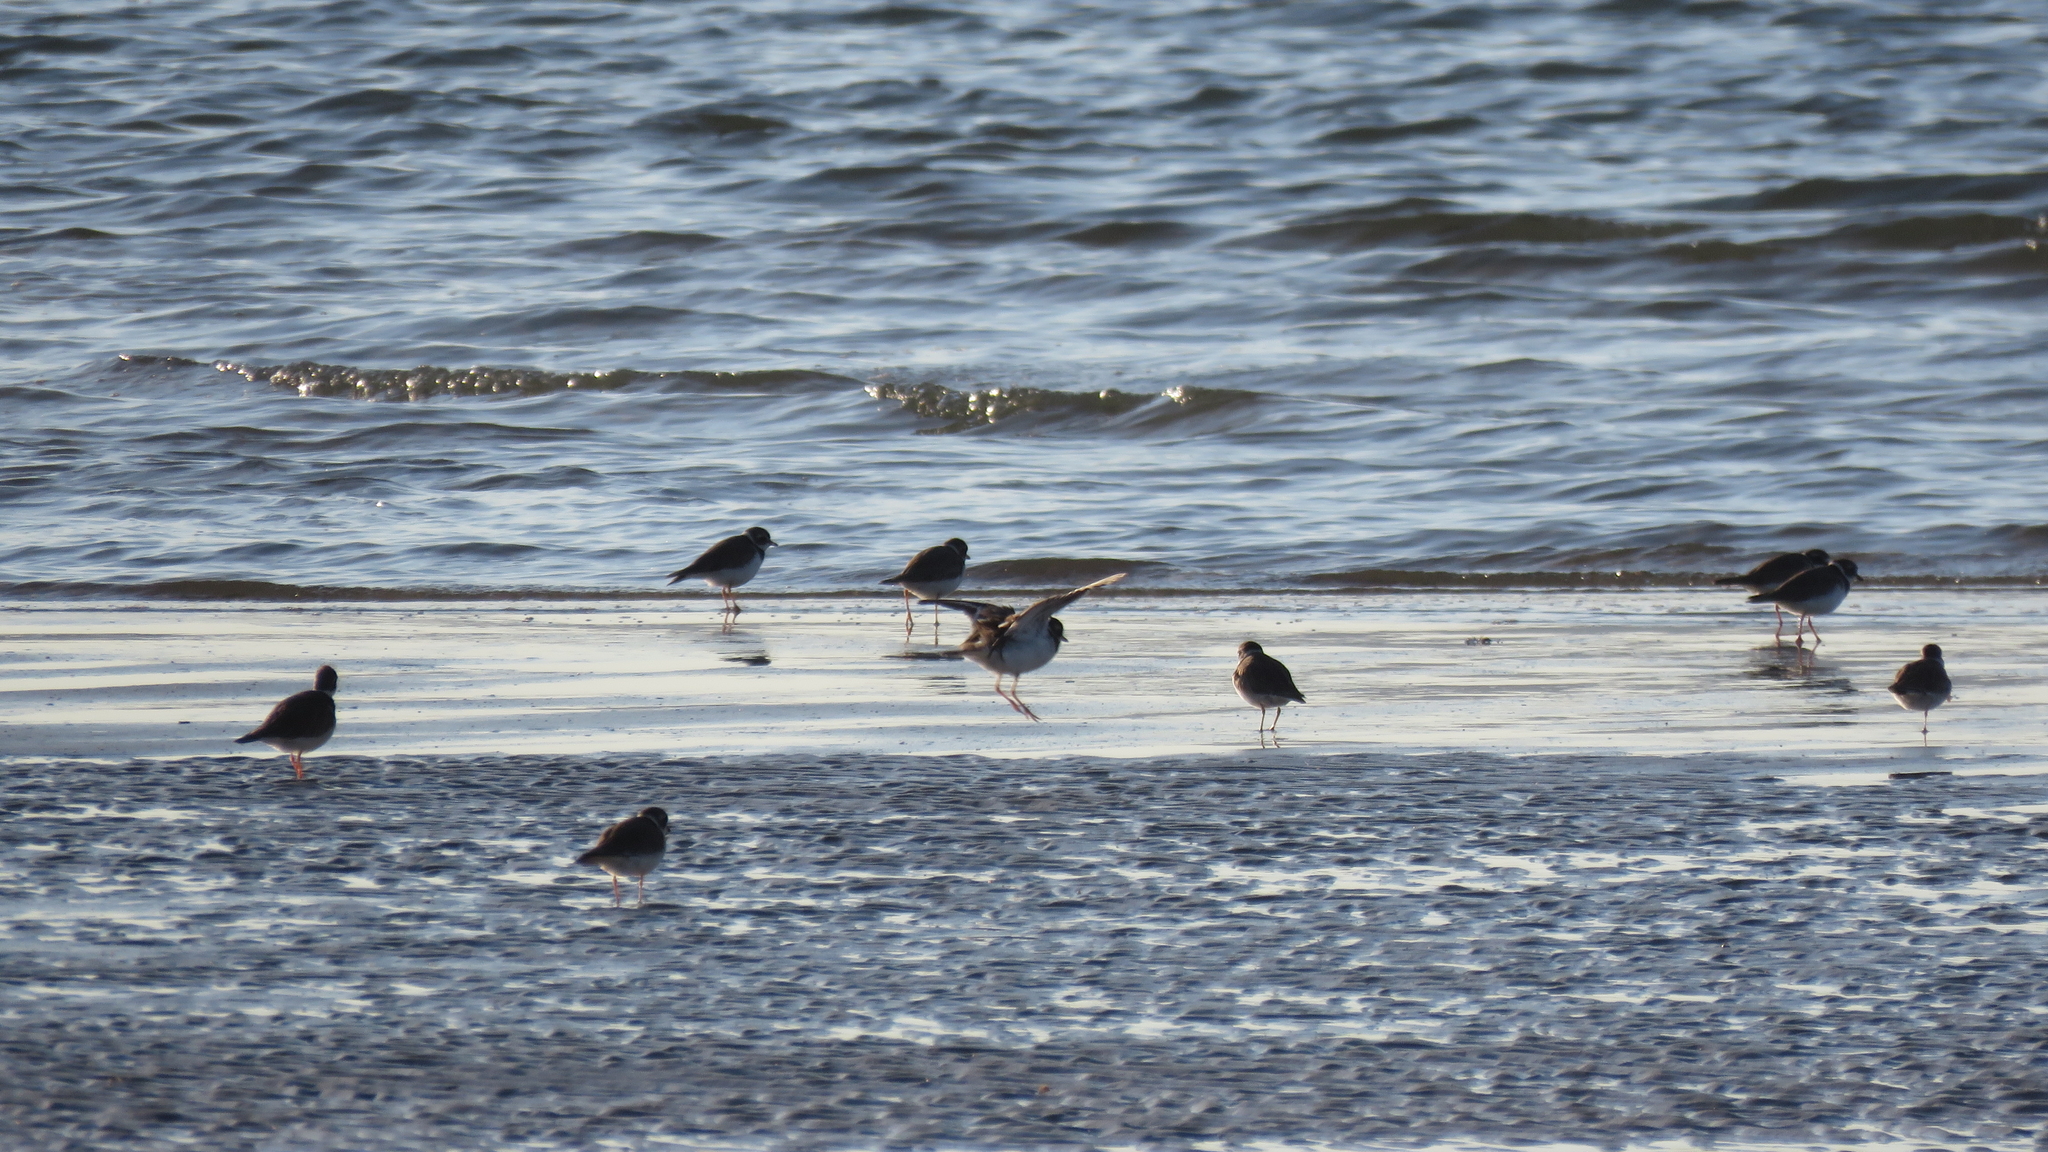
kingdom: Animalia
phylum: Chordata
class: Aves
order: Charadriiformes
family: Charadriidae
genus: Charadrius
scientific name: Charadrius semipalmatus
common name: Semipalmated plover
